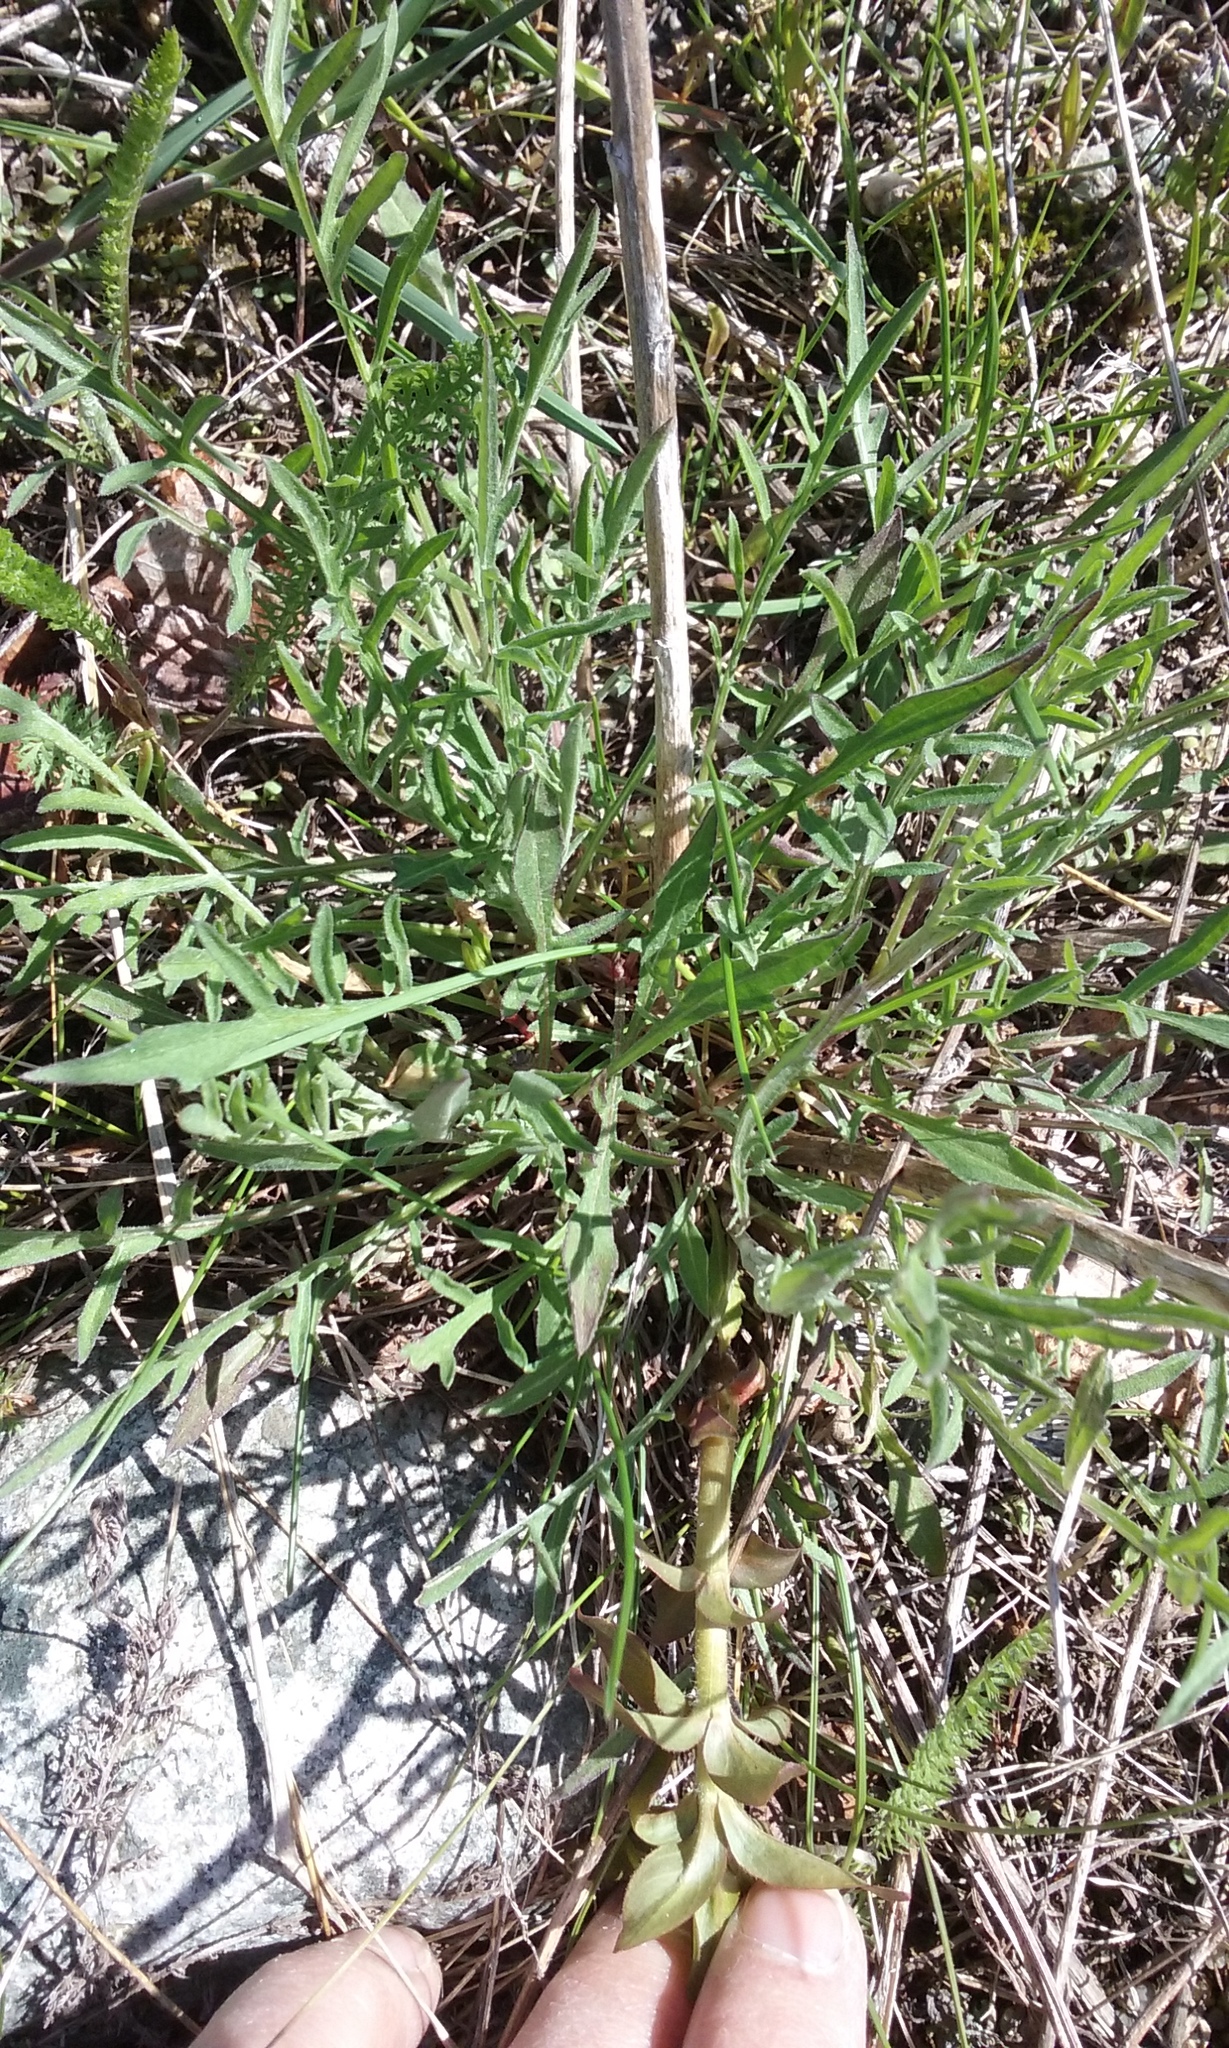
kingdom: Plantae
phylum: Tracheophyta
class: Magnoliopsida
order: Asterales
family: Asteraceae
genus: Centaurea
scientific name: Centaurea stoebe
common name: Spotted knapweed
